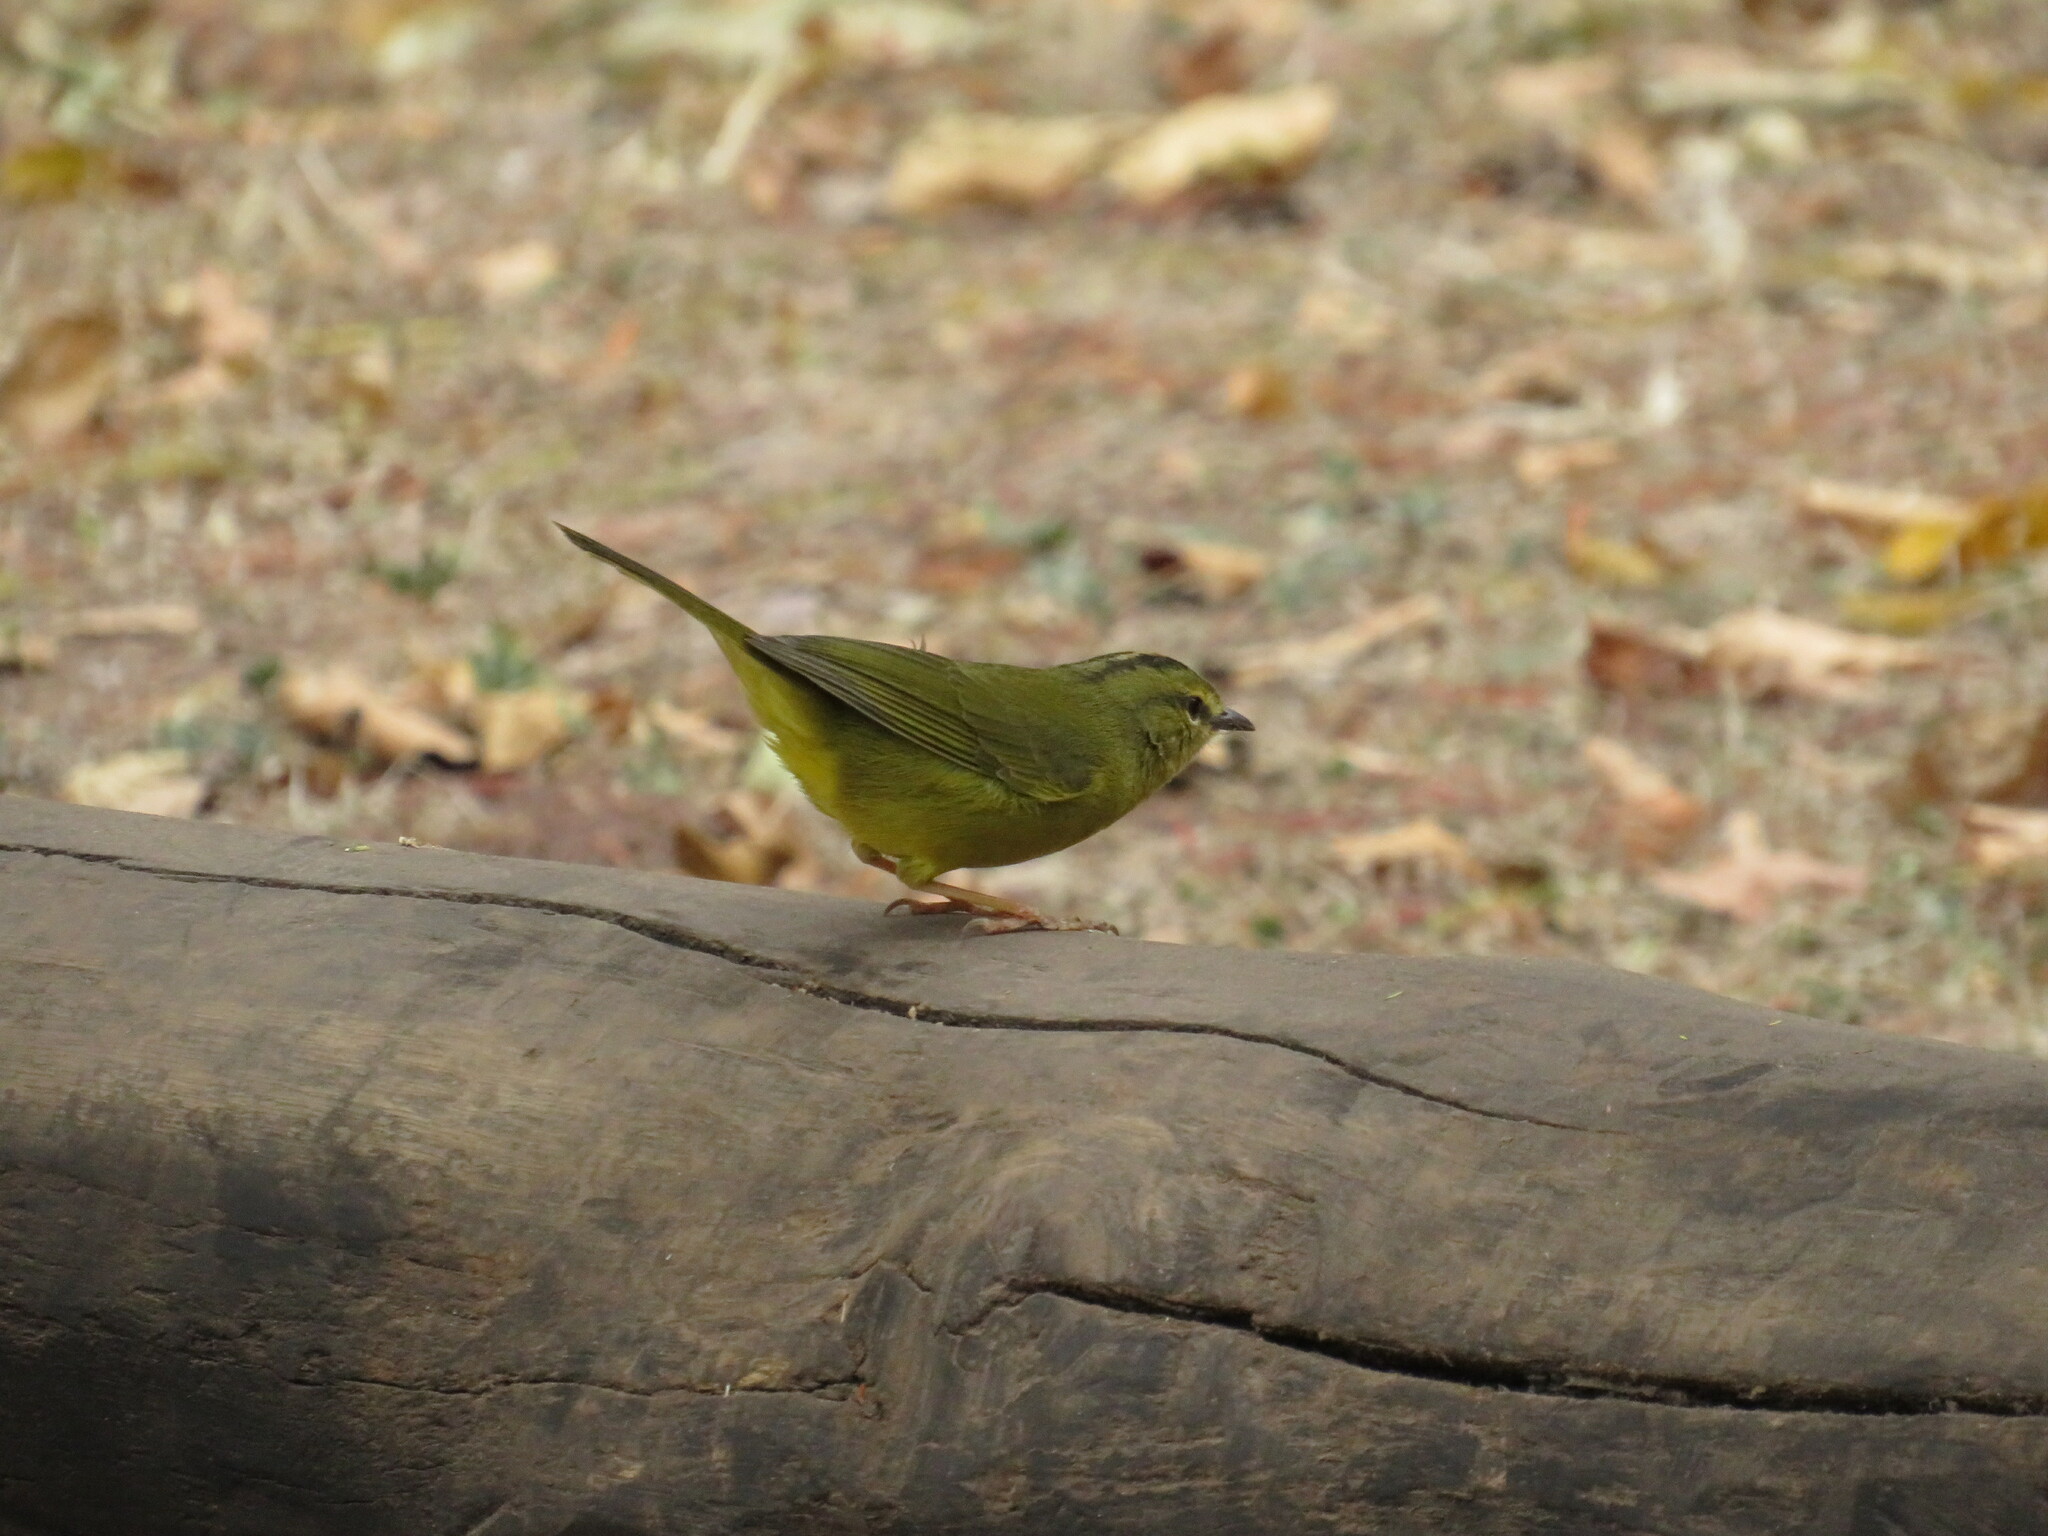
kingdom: Animalia
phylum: Chordata
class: Aves
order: Passeriformes
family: Parulidae
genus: Myiothlypis
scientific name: Myiothlypis bivittata
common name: Two-banded warbler
